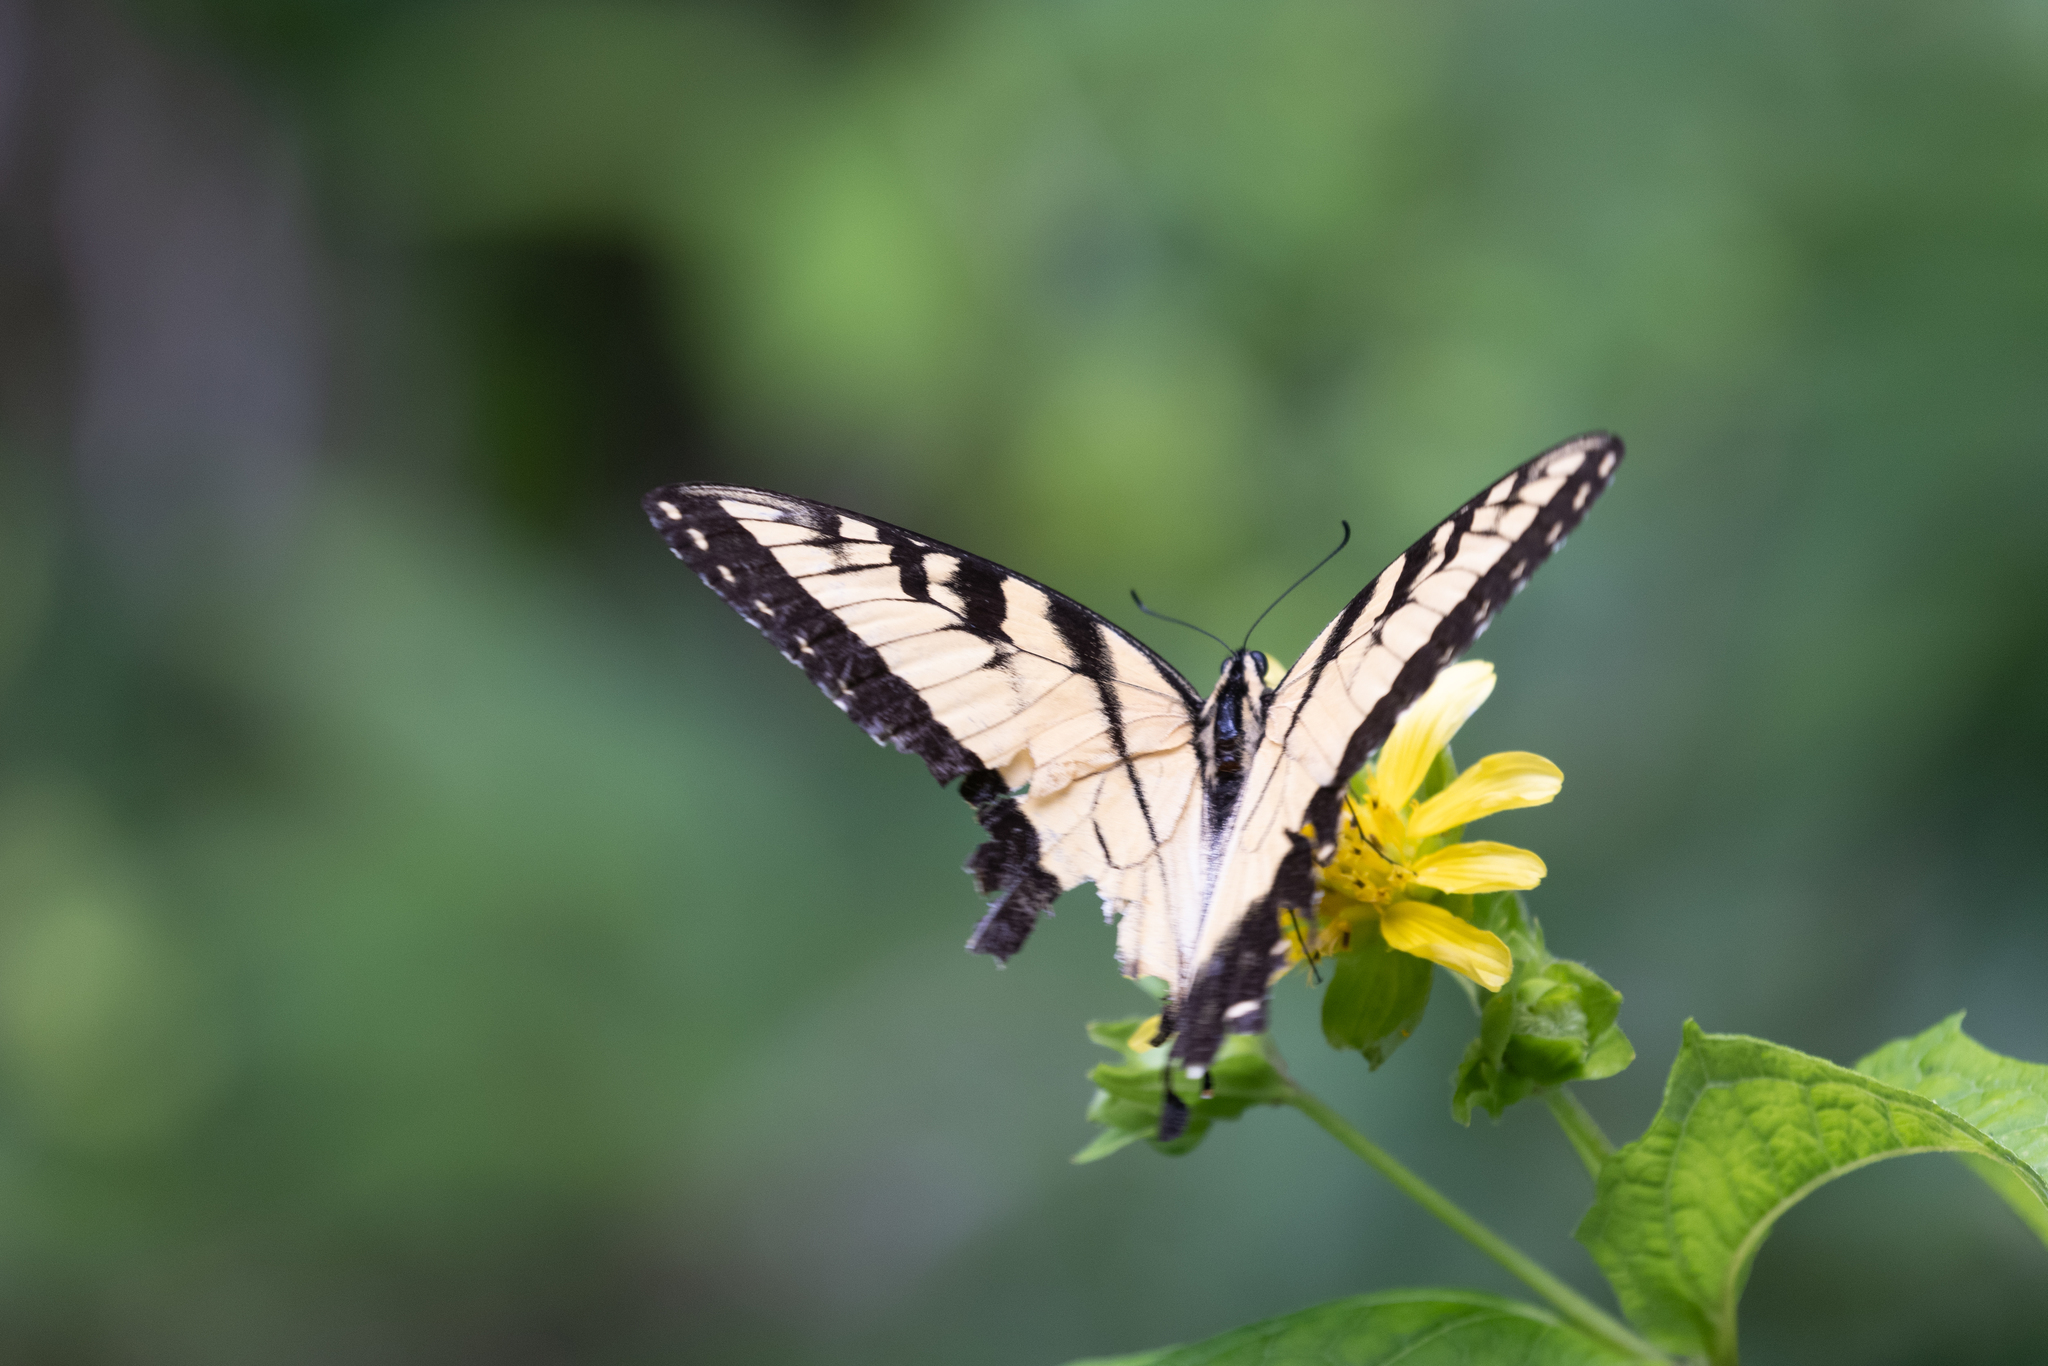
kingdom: Animalia
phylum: Arthropoda
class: Insecta
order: Lepidoptera
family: Papilionidae
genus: Papilio
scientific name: Papilio glaucus
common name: Tiger swallowtail
